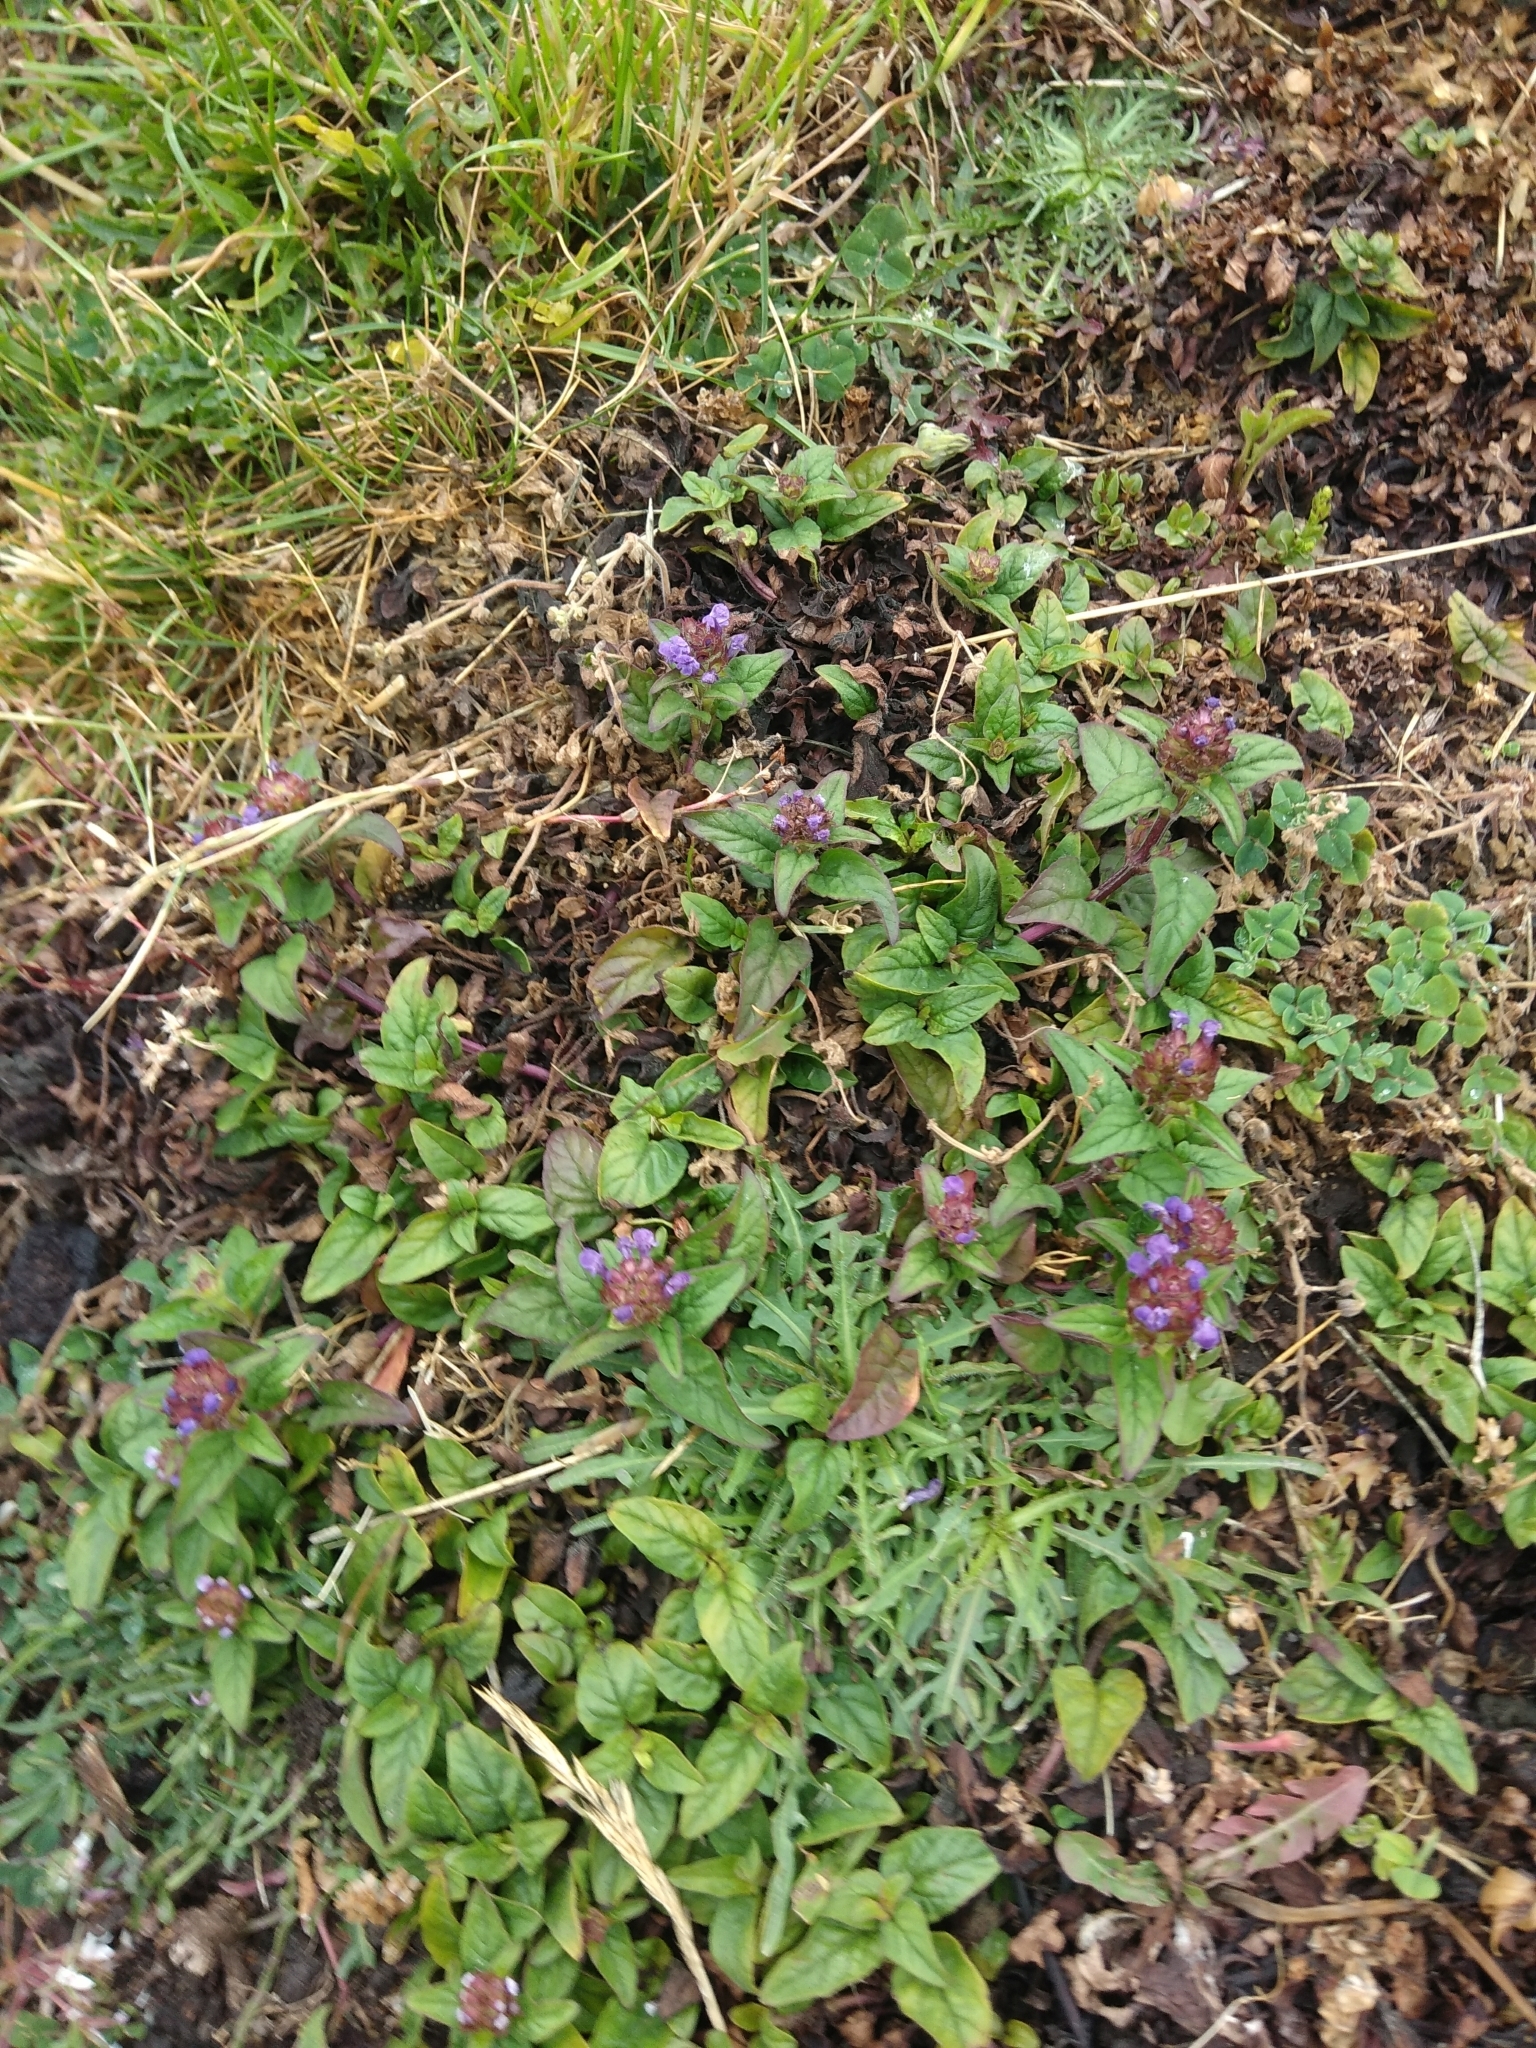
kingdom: Plantae
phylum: Tracheophyta
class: Magnoliopsida
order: Lamiales
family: Lamiaceae
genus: Prunella
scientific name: Prunella vulgaris
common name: Heal-all
